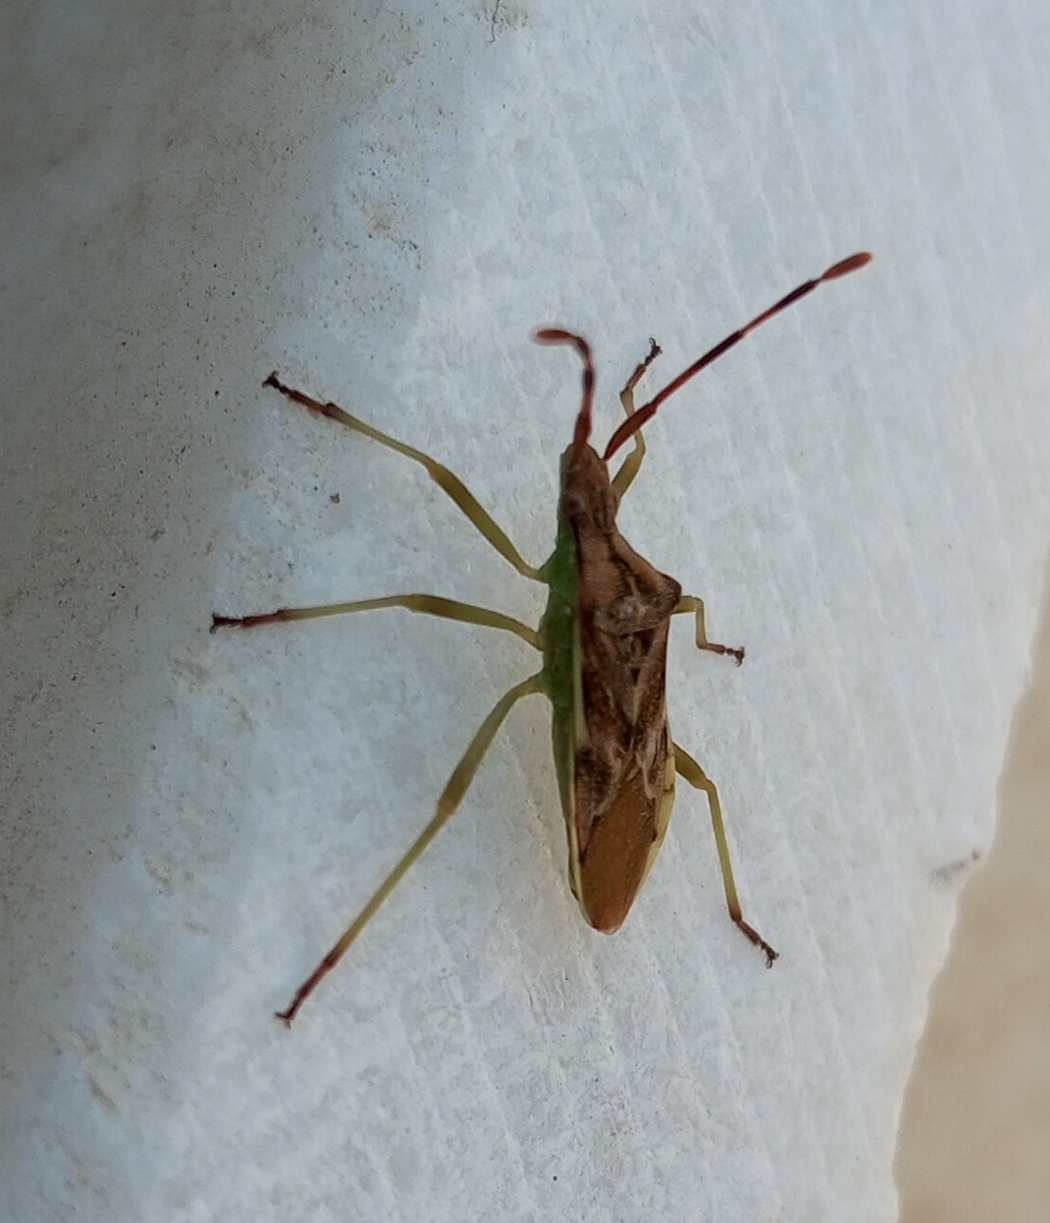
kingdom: Animalia
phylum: Arthropoda
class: Insecta
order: Hemiptera
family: Coreidae
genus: Gonocerus
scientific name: Gonocerus juniperi
